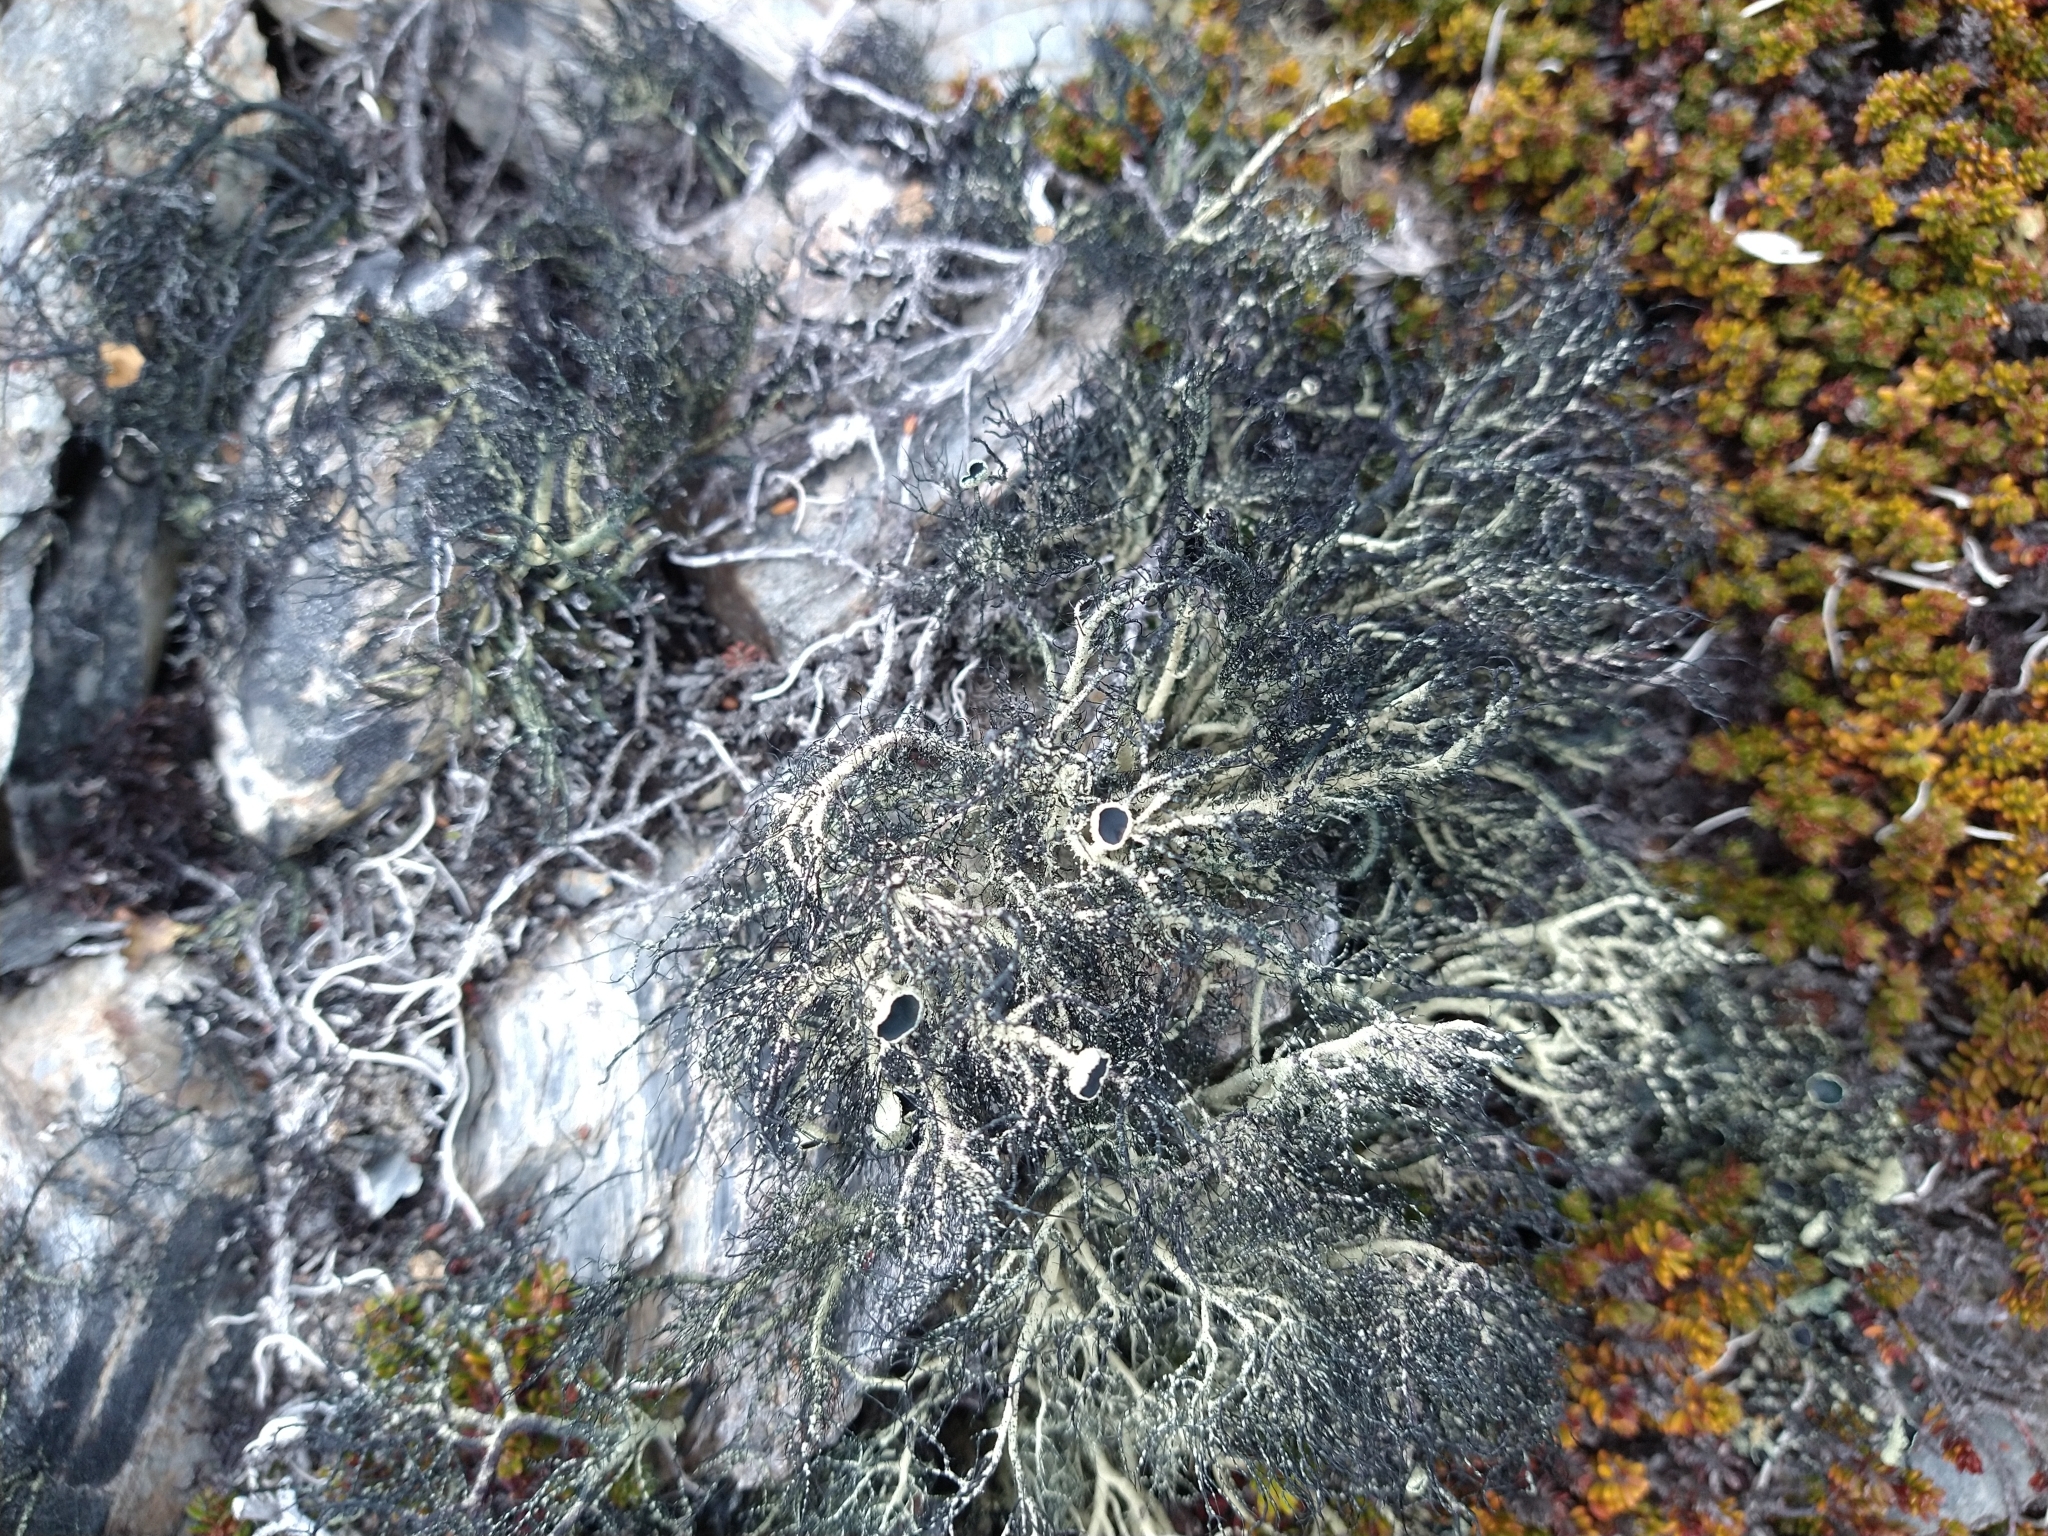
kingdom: Fungi
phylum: Ascomycota
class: Lecanoromycetes
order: Lecanorales
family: Parmeliaceae
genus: Usnea
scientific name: Usnea trachycarpa
